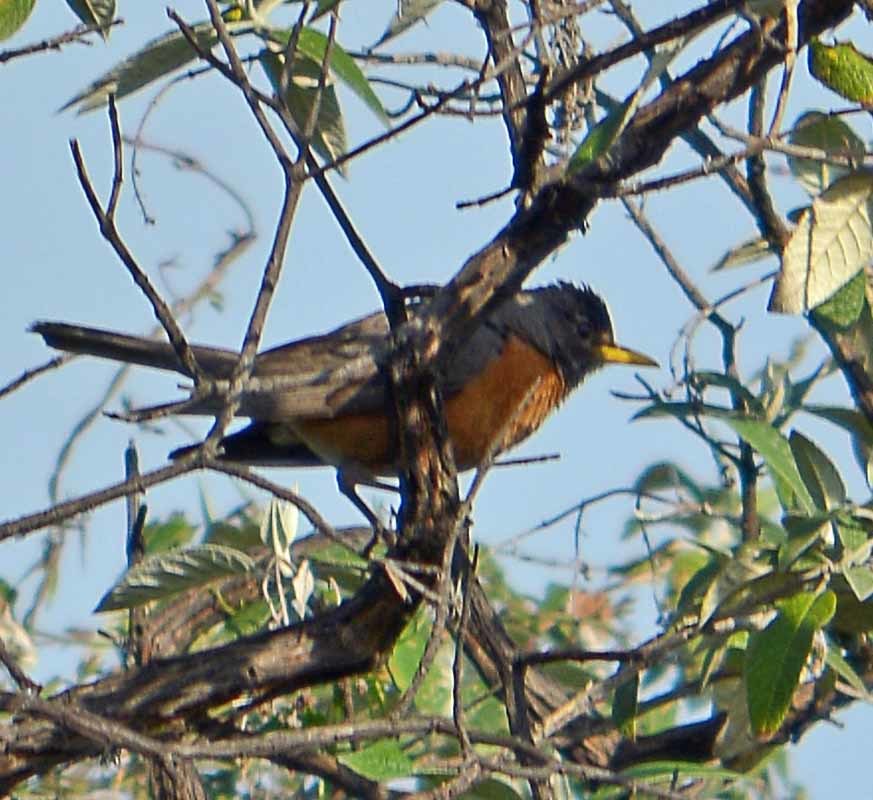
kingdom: Animalia
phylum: Chordata
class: Aves
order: Passeriformes
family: Turdidae
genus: Turdus
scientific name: Turdus migratorius
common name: American robin
